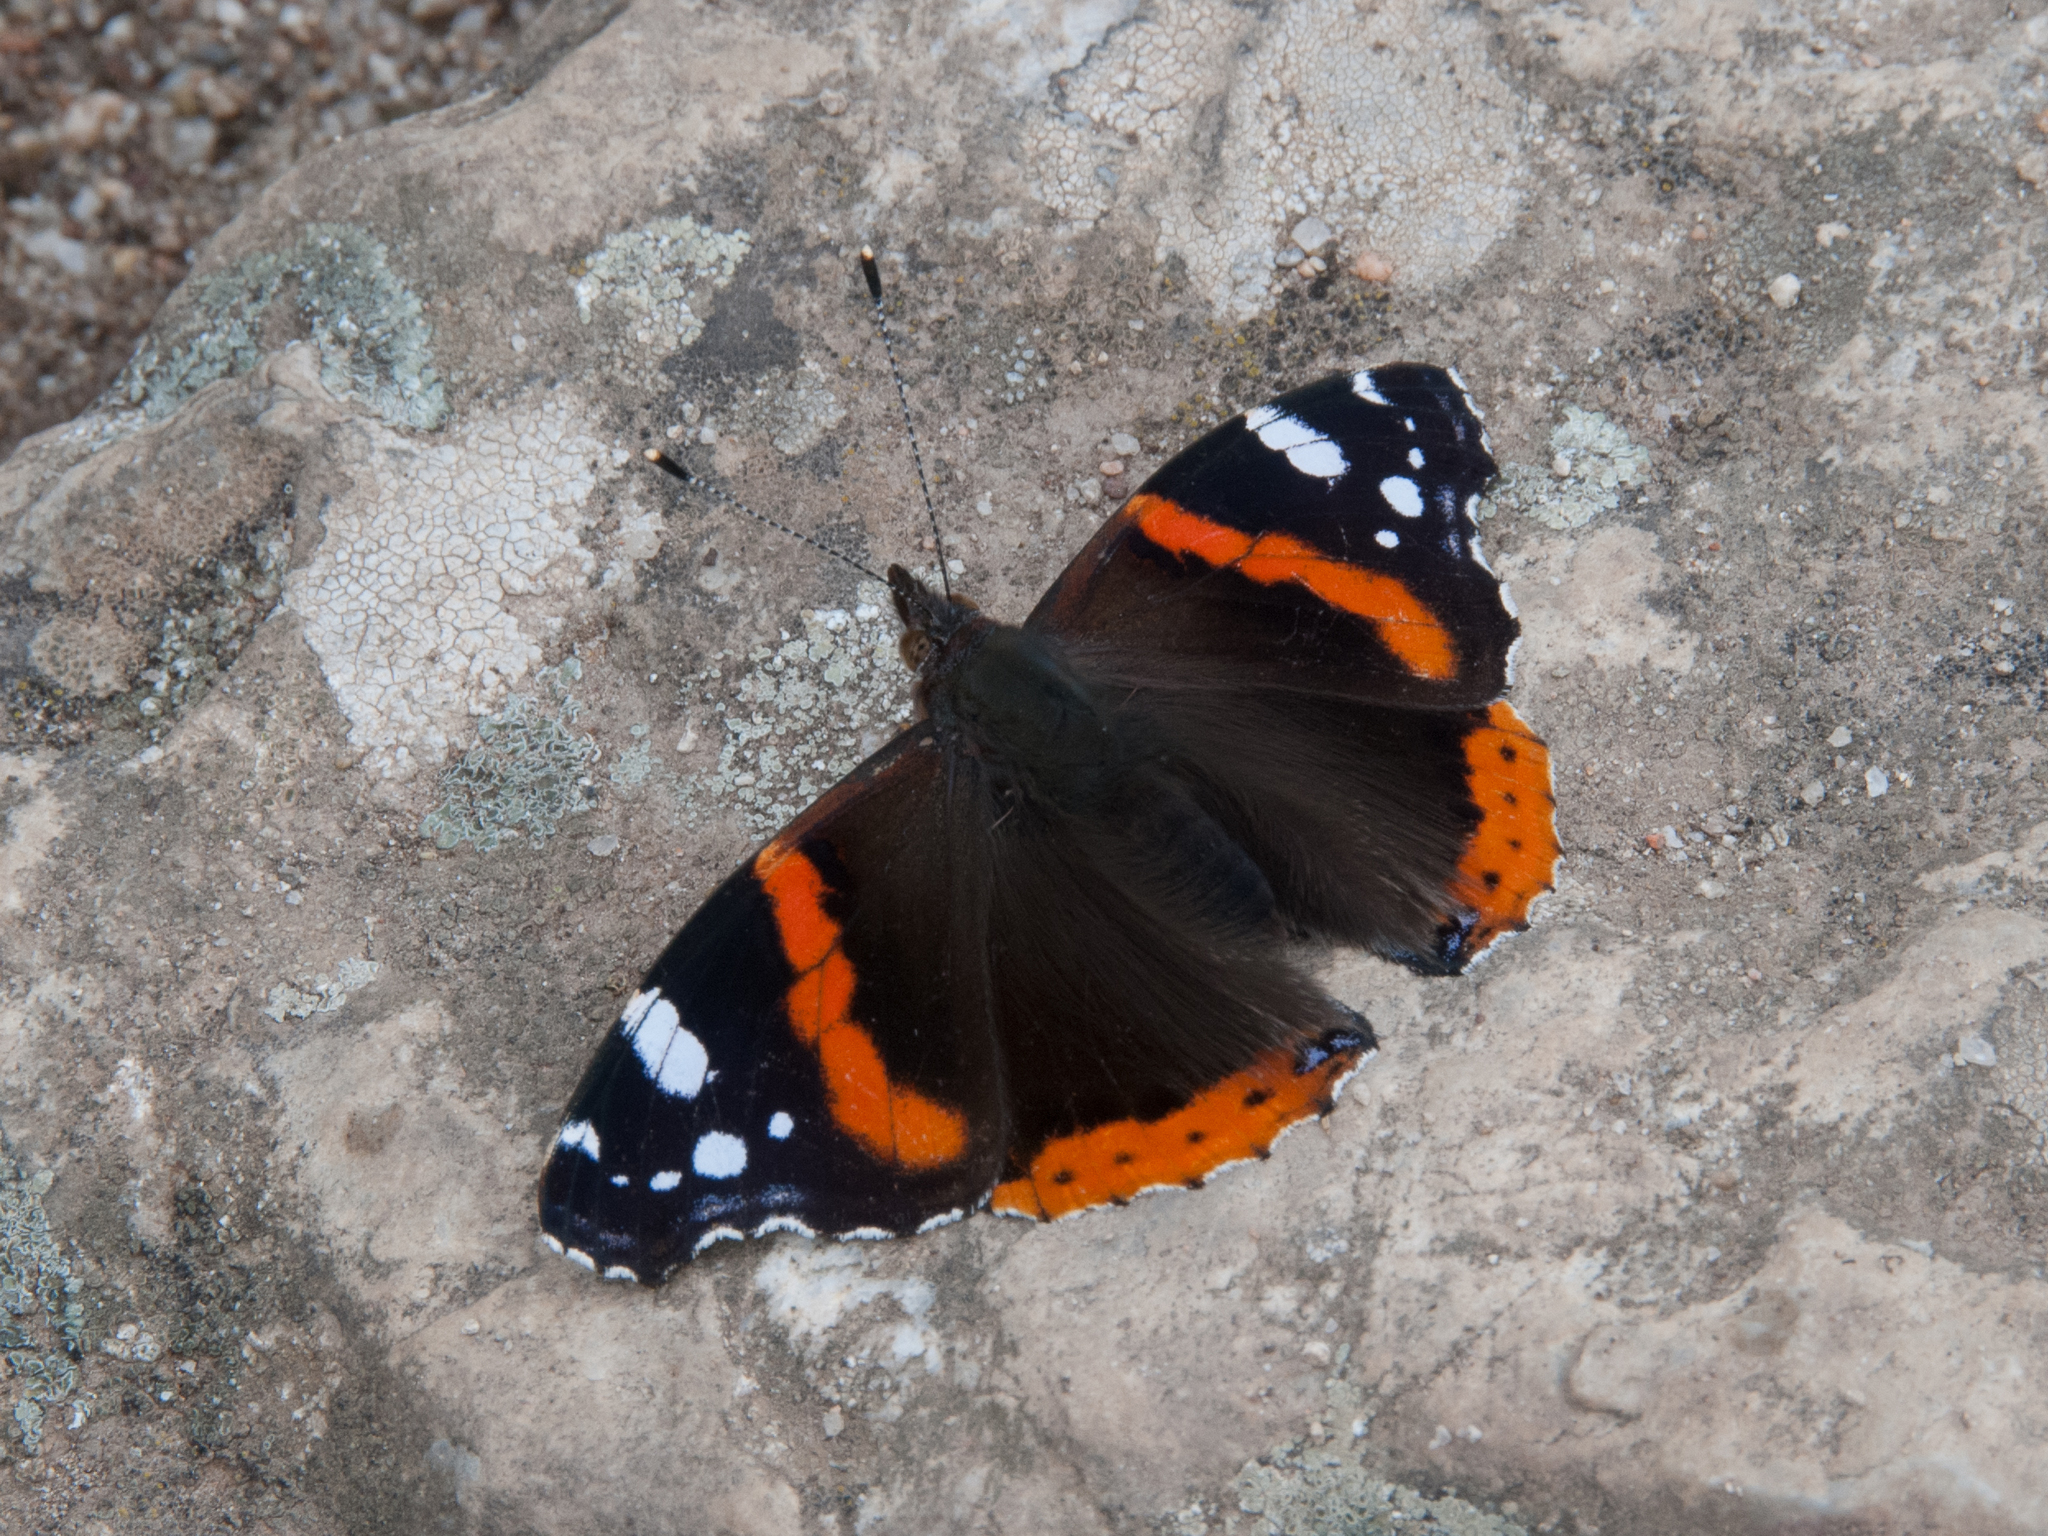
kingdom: Animalia
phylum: Arthropoda
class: Insecta
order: Lepidoptera
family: Nymphalidae
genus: Vanessa
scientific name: Vanessa atalanta
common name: Red admiral
